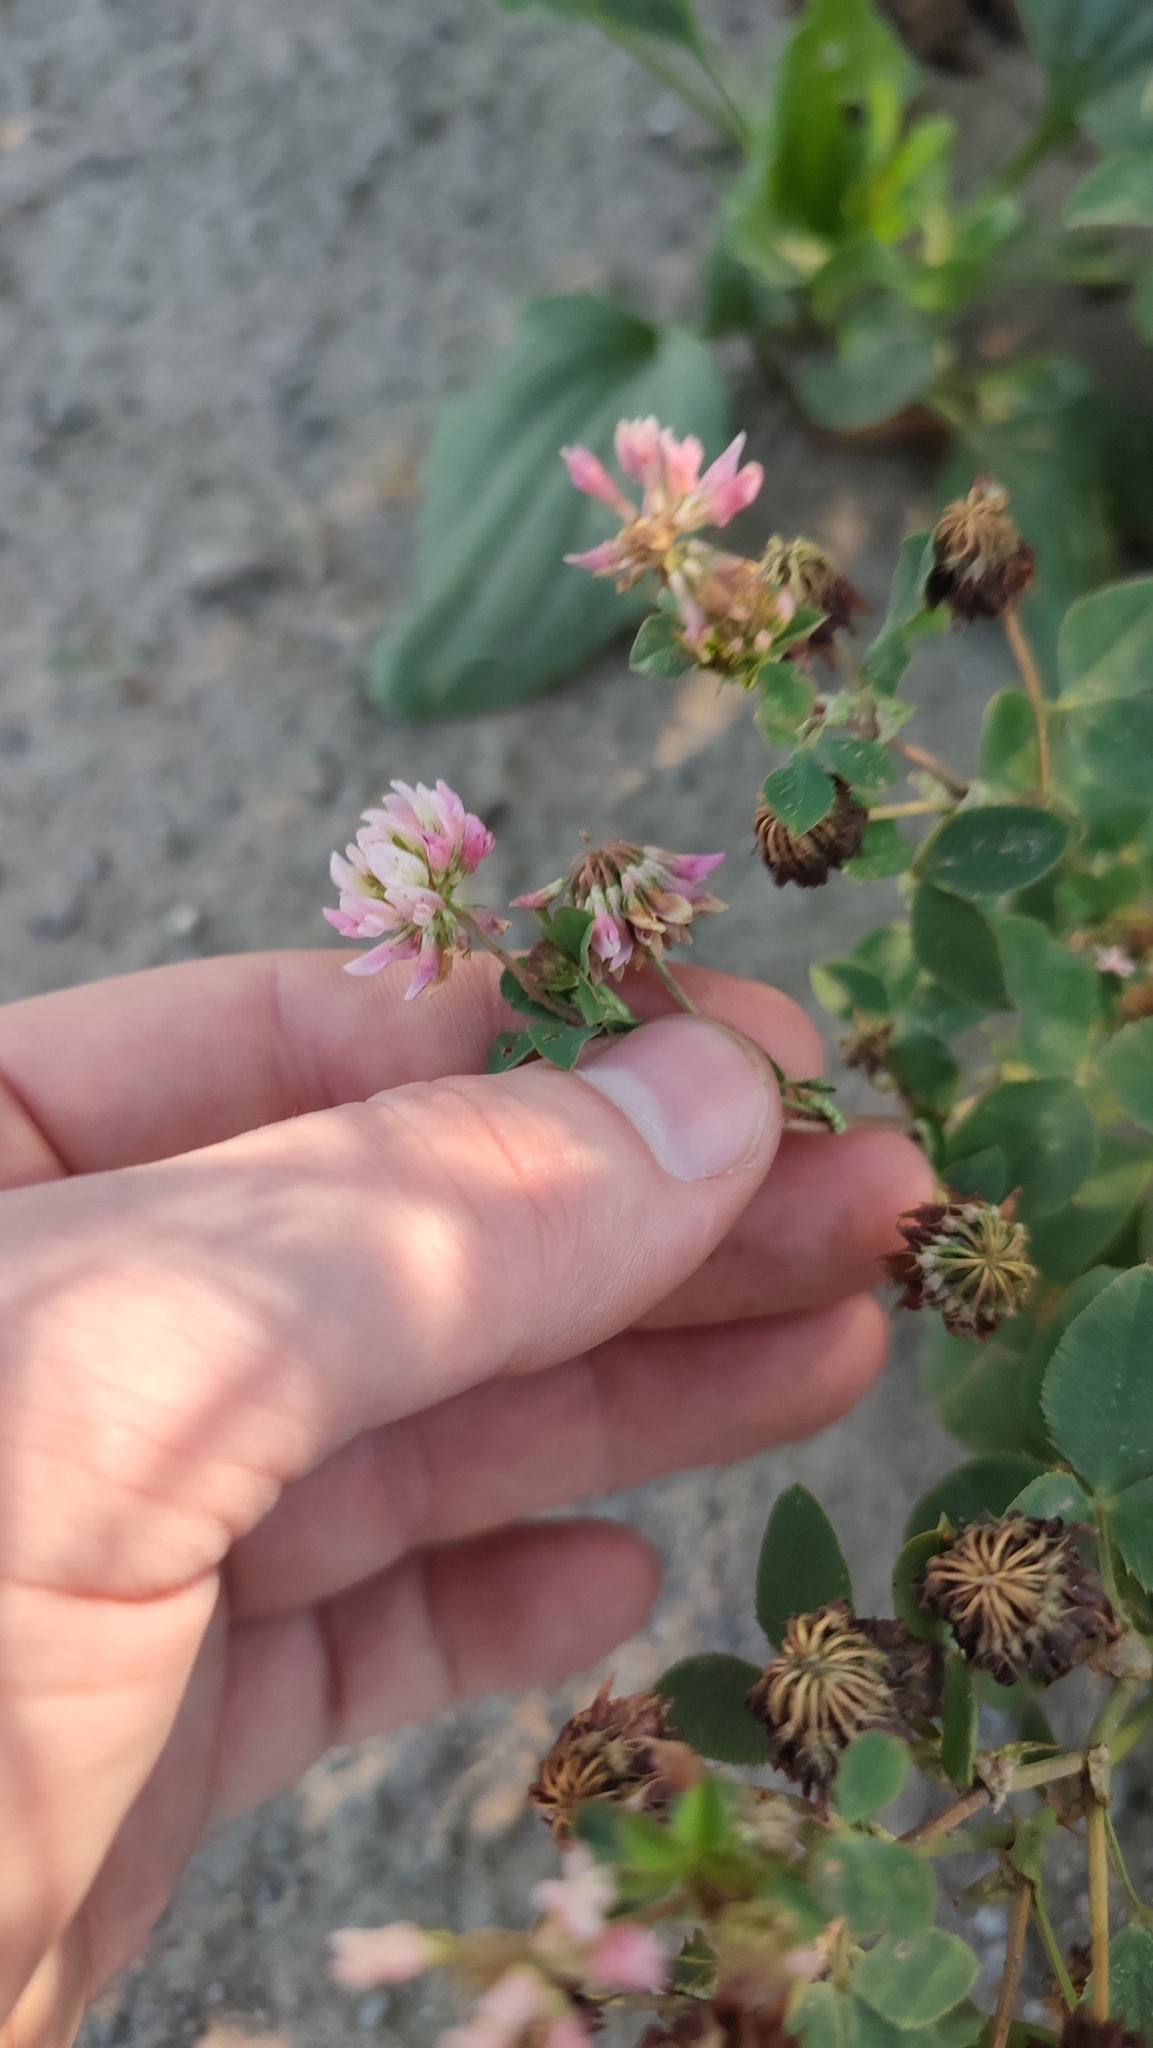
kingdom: Plantae
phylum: Tracheophyta
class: Magnoliopsida
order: Fabales
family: Fabaceae
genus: Trifolium
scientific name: Trifolium hybridum
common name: Alsike clover
